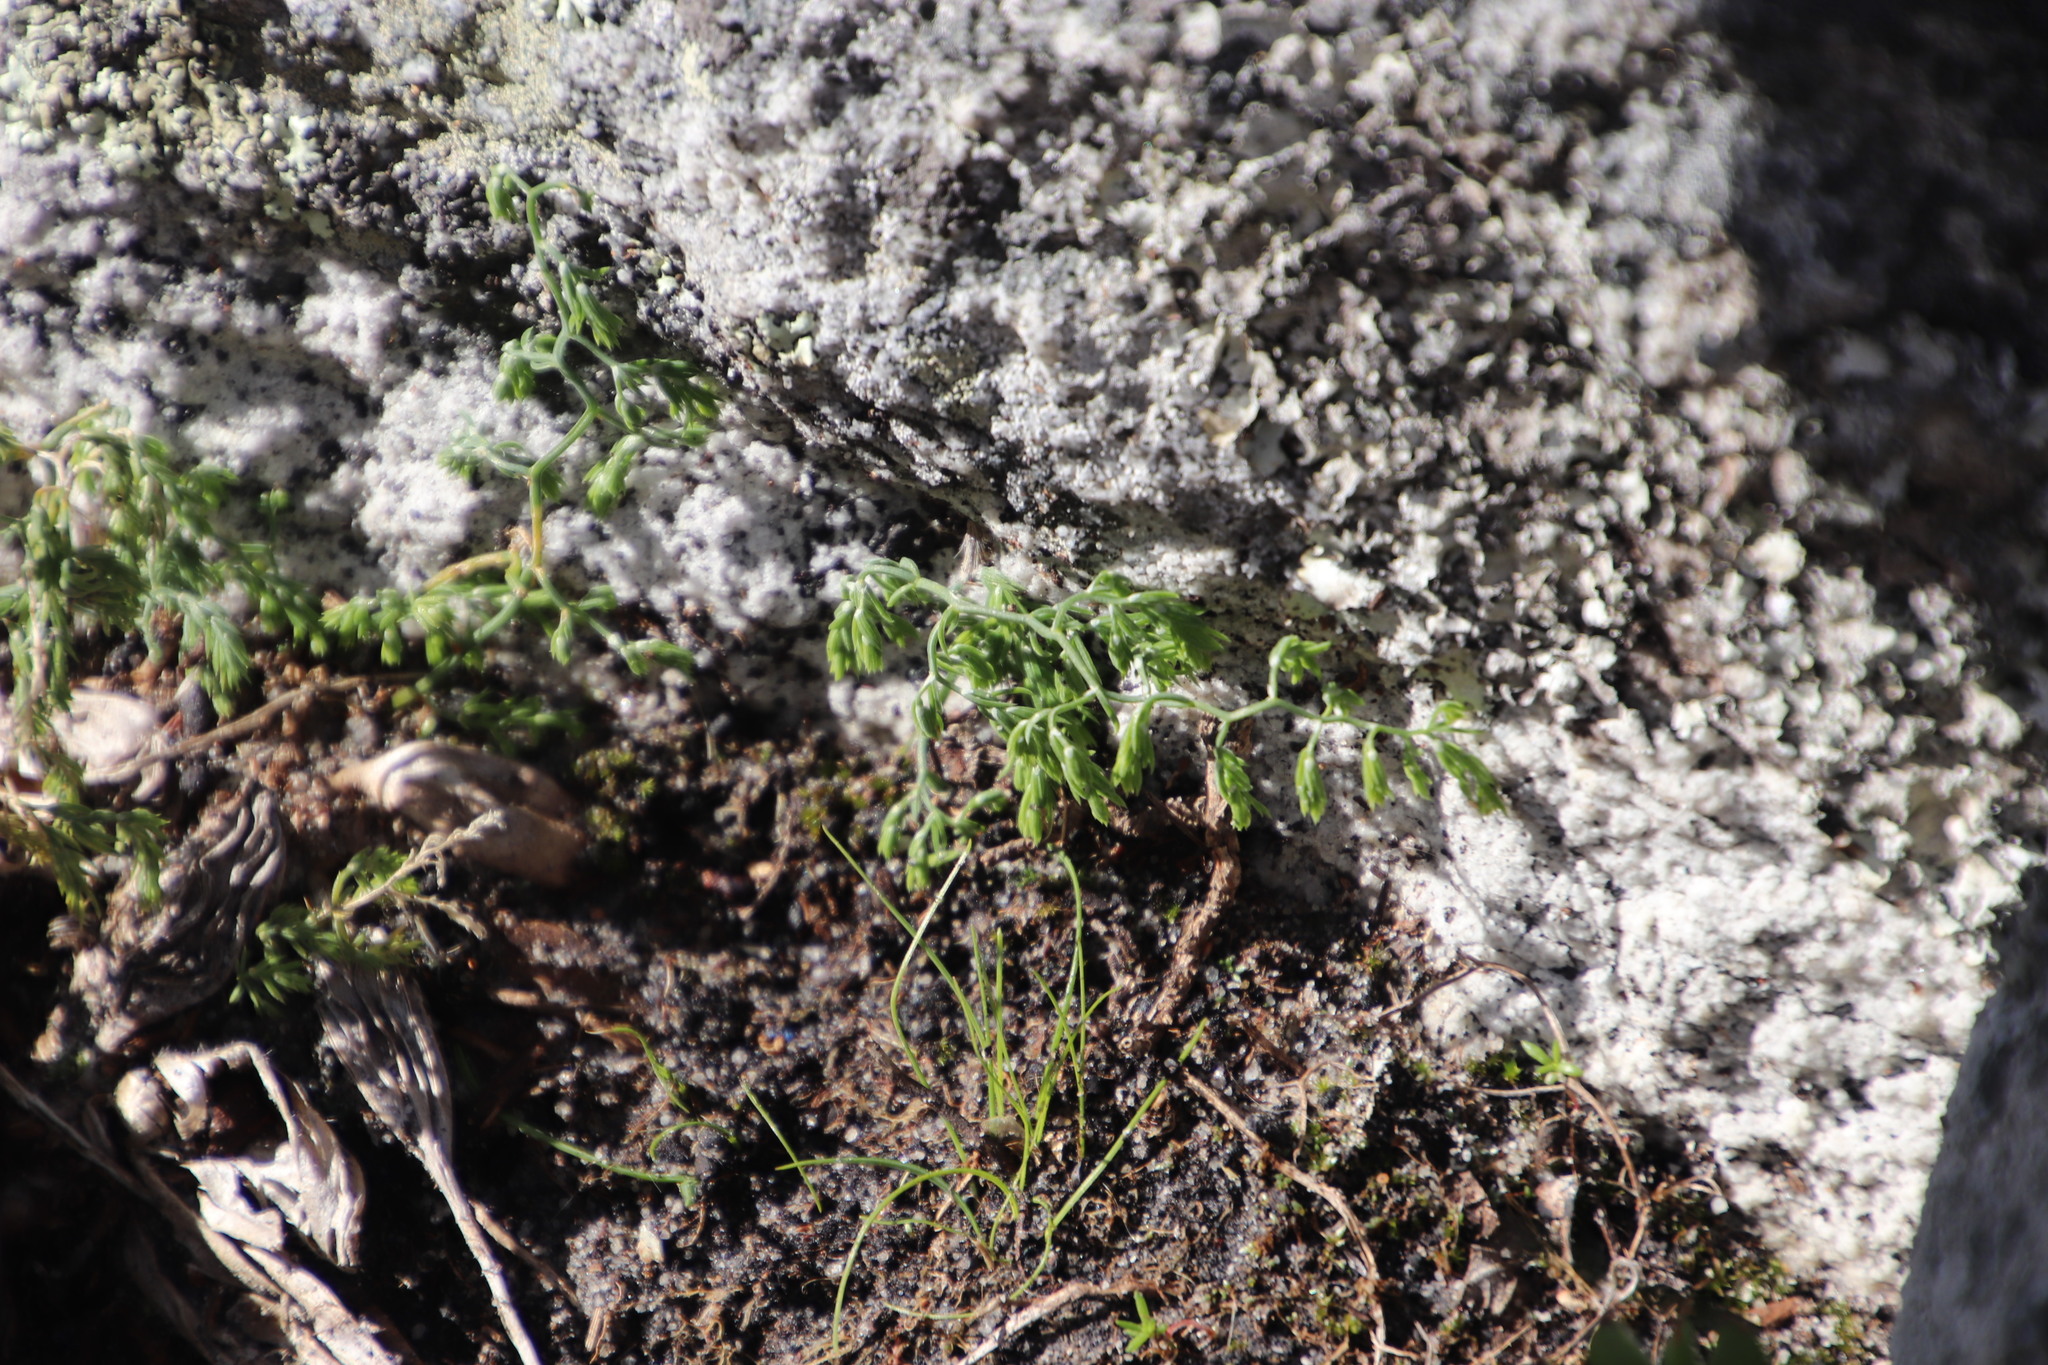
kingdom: Plantae
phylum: Tracheophyta
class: Liliopsida
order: Asparagales
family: Asparagaceae
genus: Asparagus
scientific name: Asparagus declinatus
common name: Bridal-creeper
